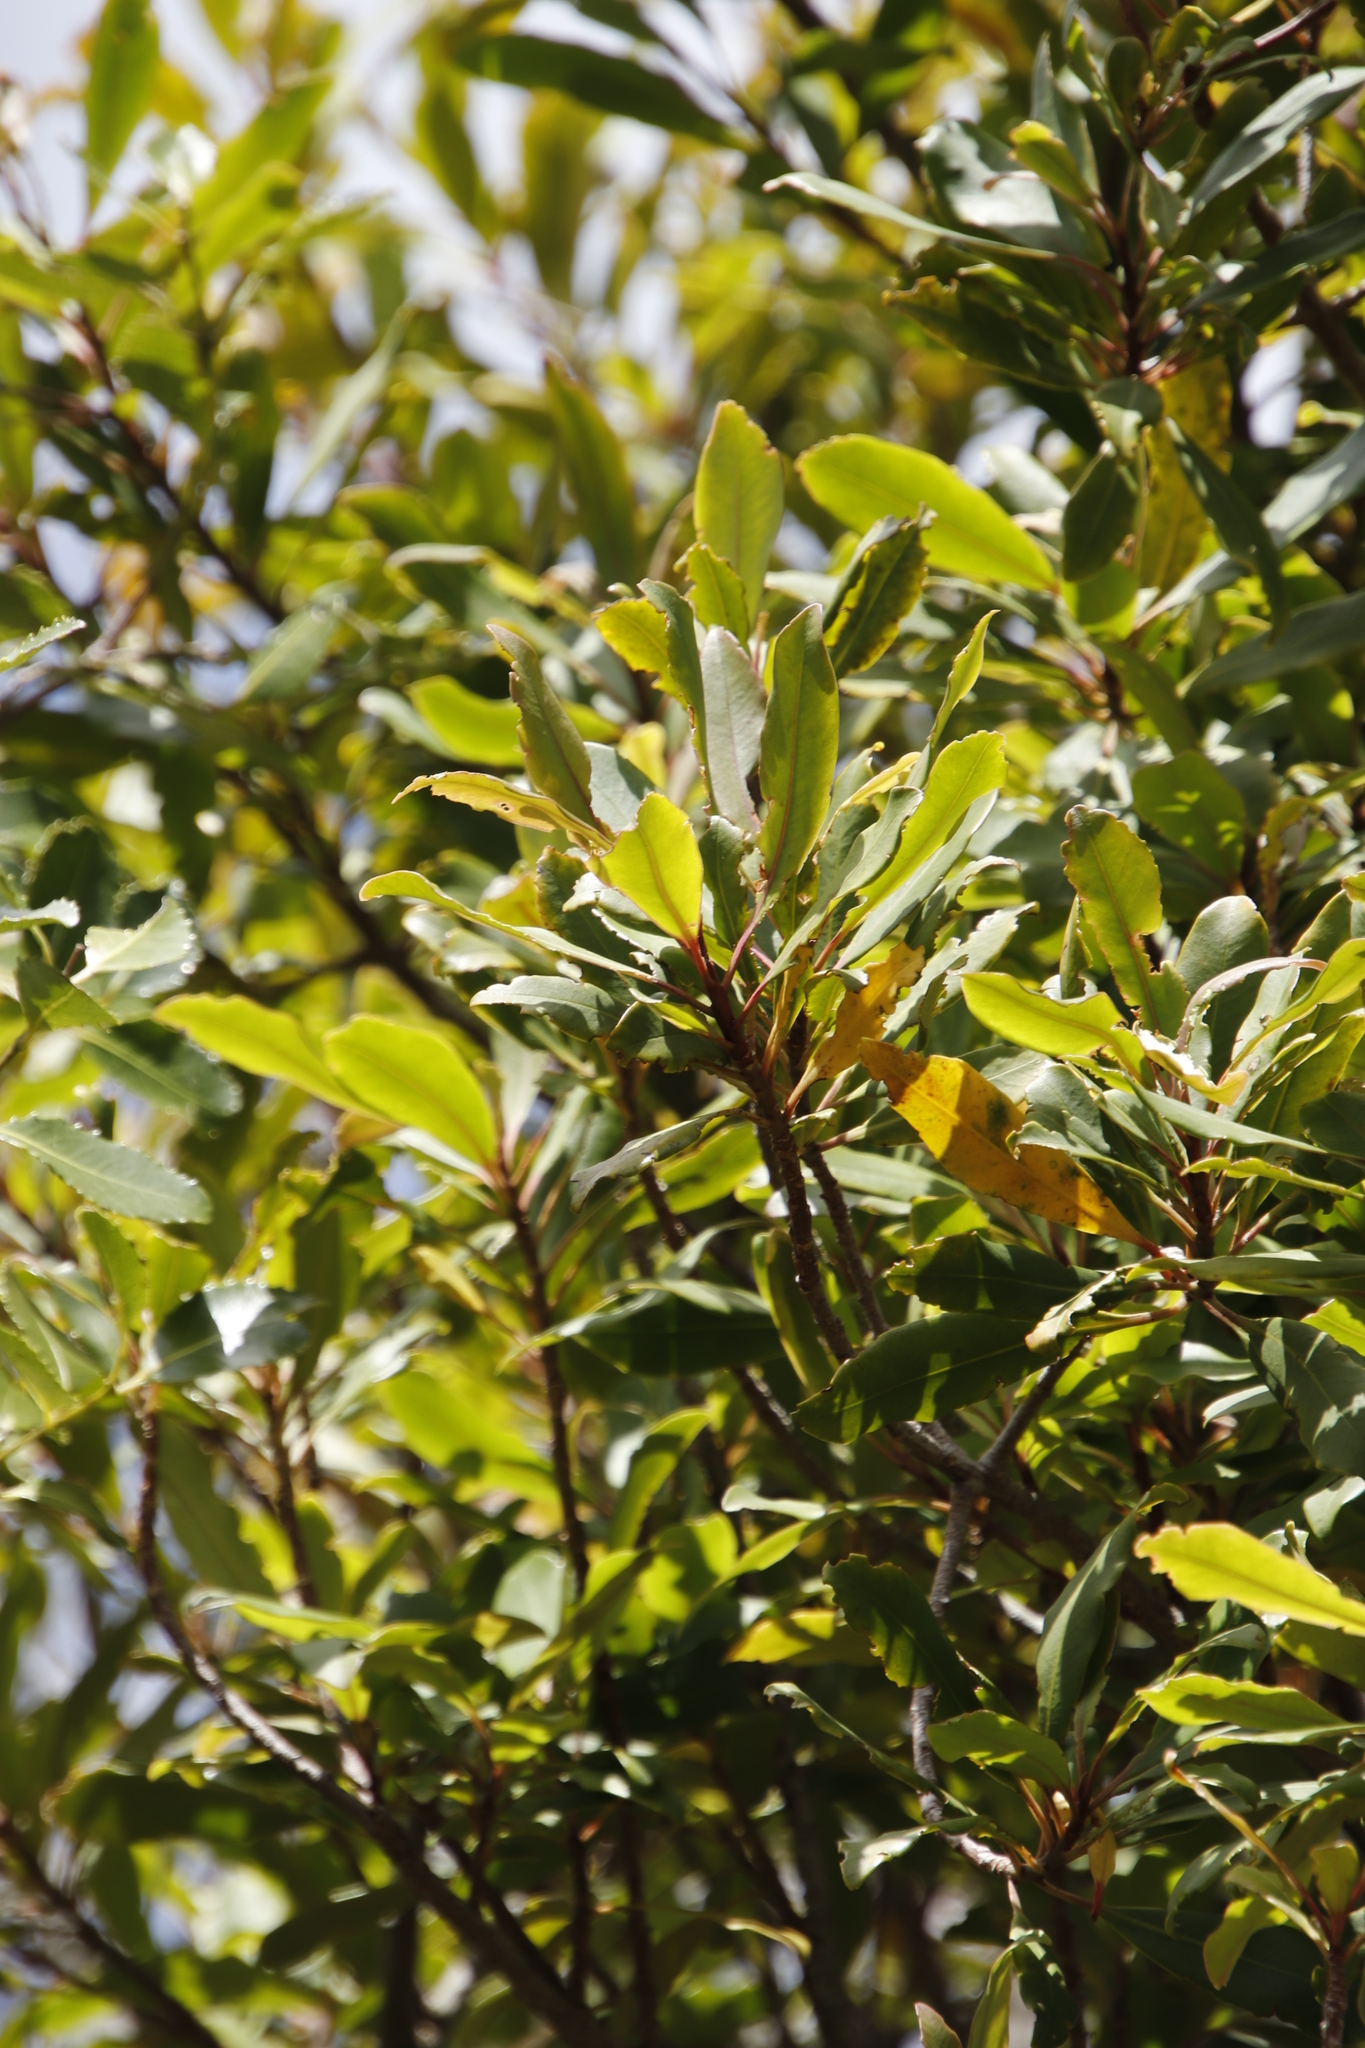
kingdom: Plantae
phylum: Tracheophyta
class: Magnoliopsida
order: Ericales
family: Primulaceae
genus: Myrsine
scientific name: Myrsine melanophloeos
